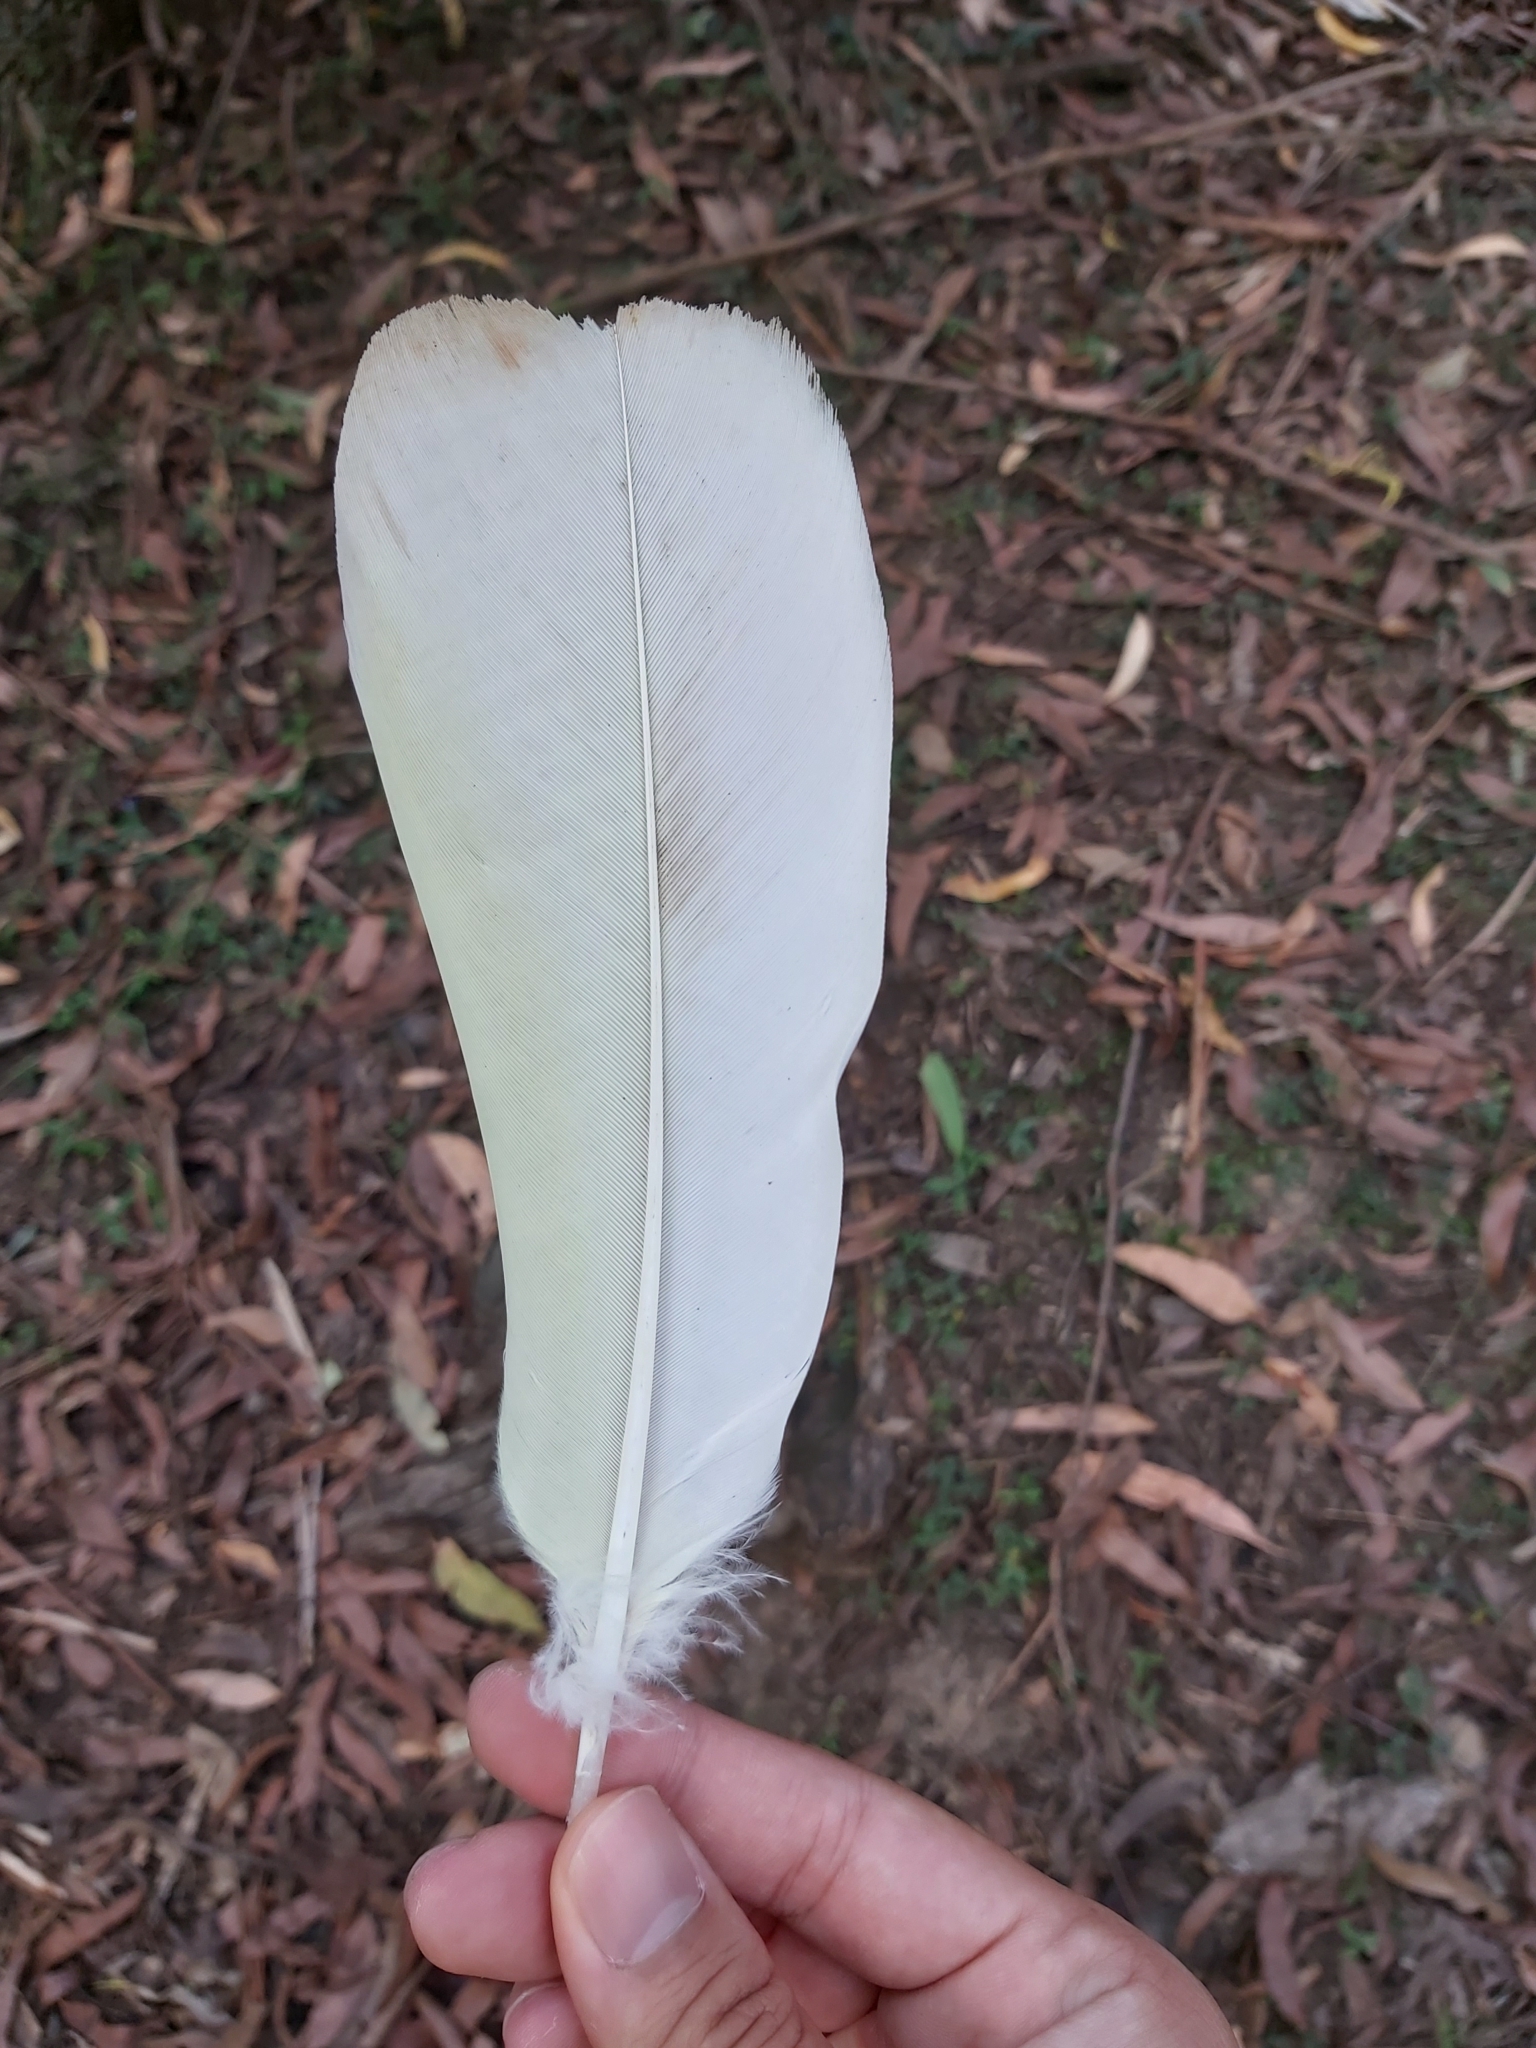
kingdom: Animalia
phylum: Chordata
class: Aves
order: Psittaciformes
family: Psittacidae
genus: Cacatua
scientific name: Cacatua galerita
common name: Sulphur-crested cockatoo
